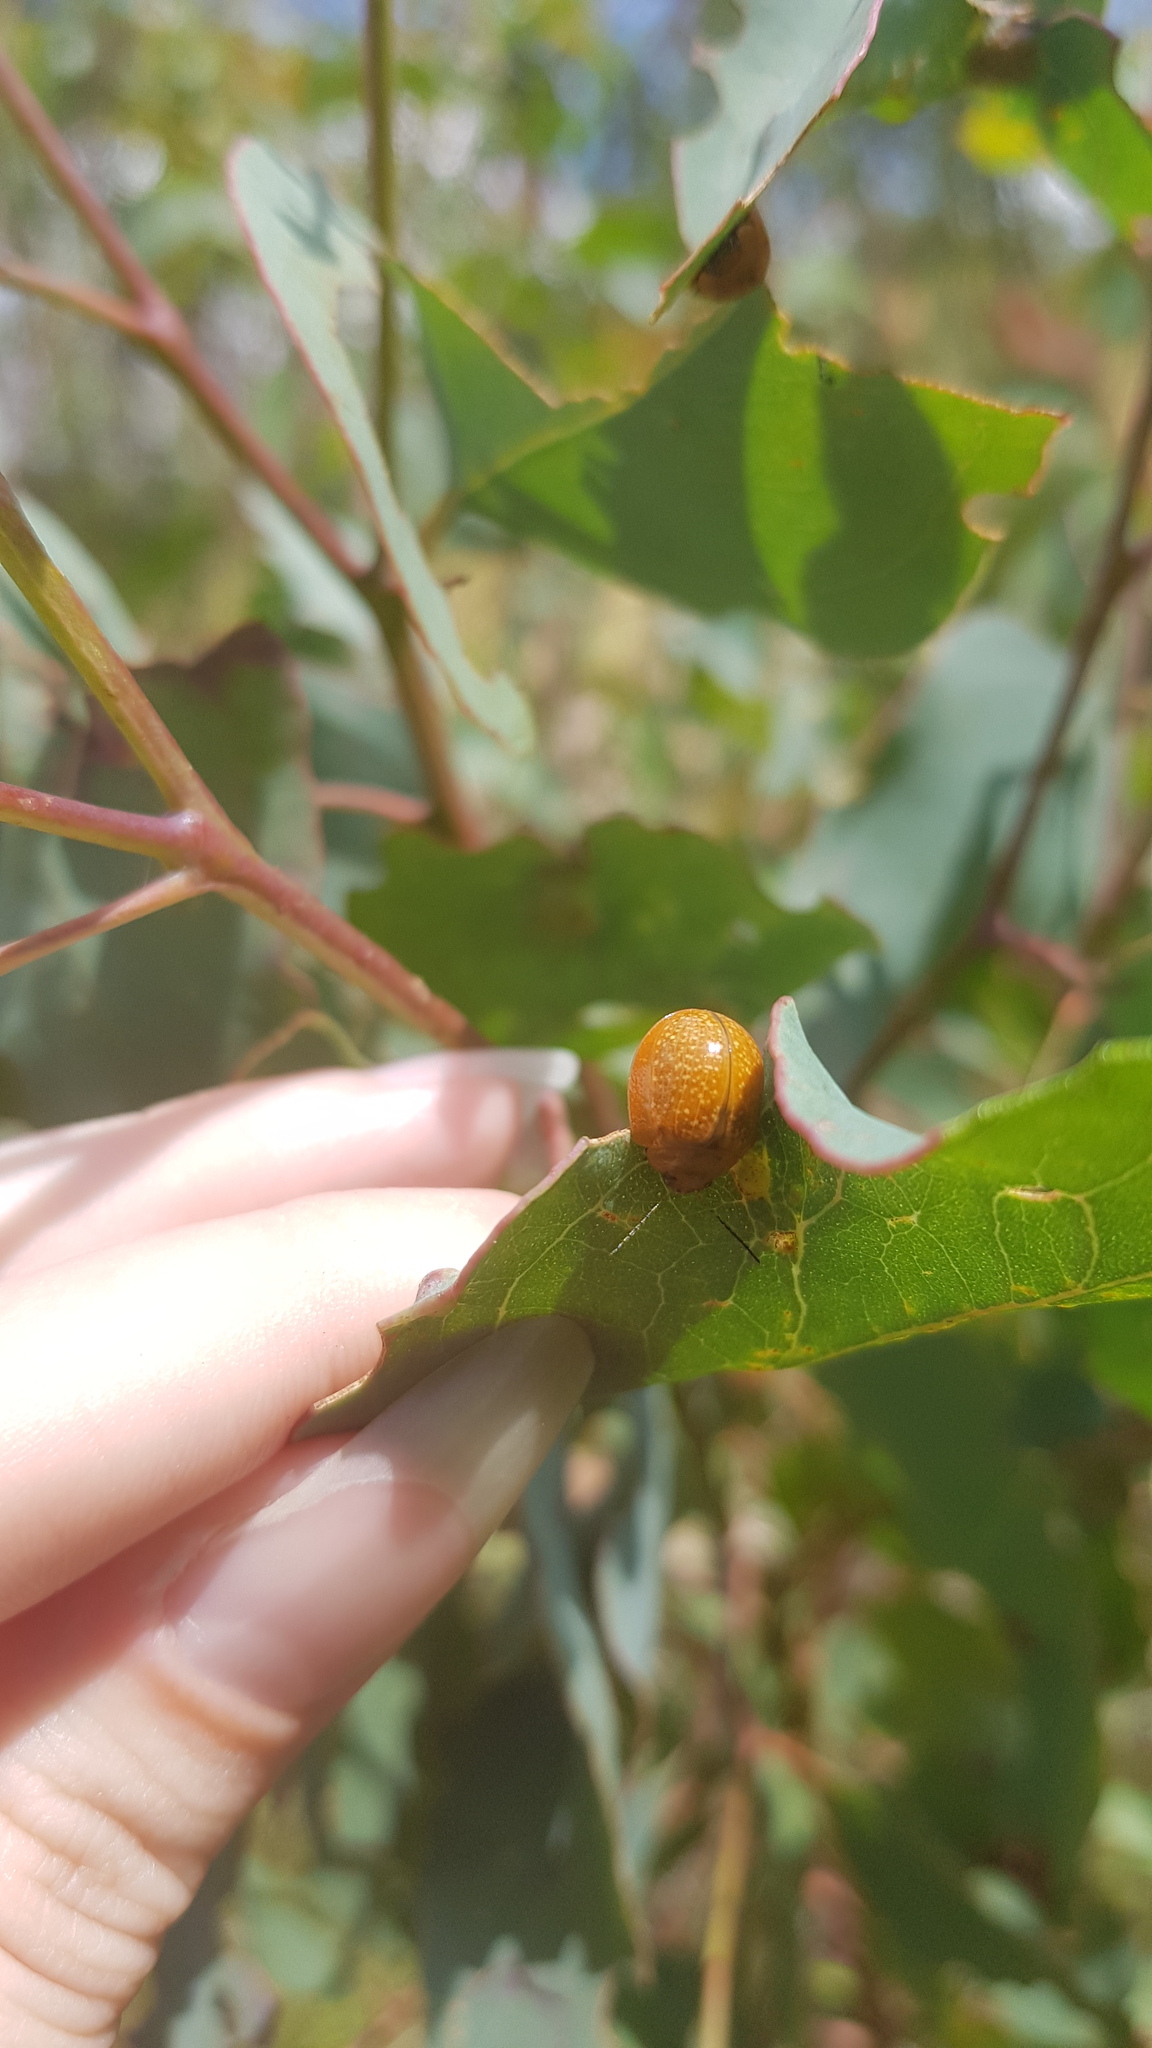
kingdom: Animalia
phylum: Arthropoda
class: Insecta
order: Coleoptera
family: Chrysomelidae
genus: Paropsisterna
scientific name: Paropsisterna cloelia
